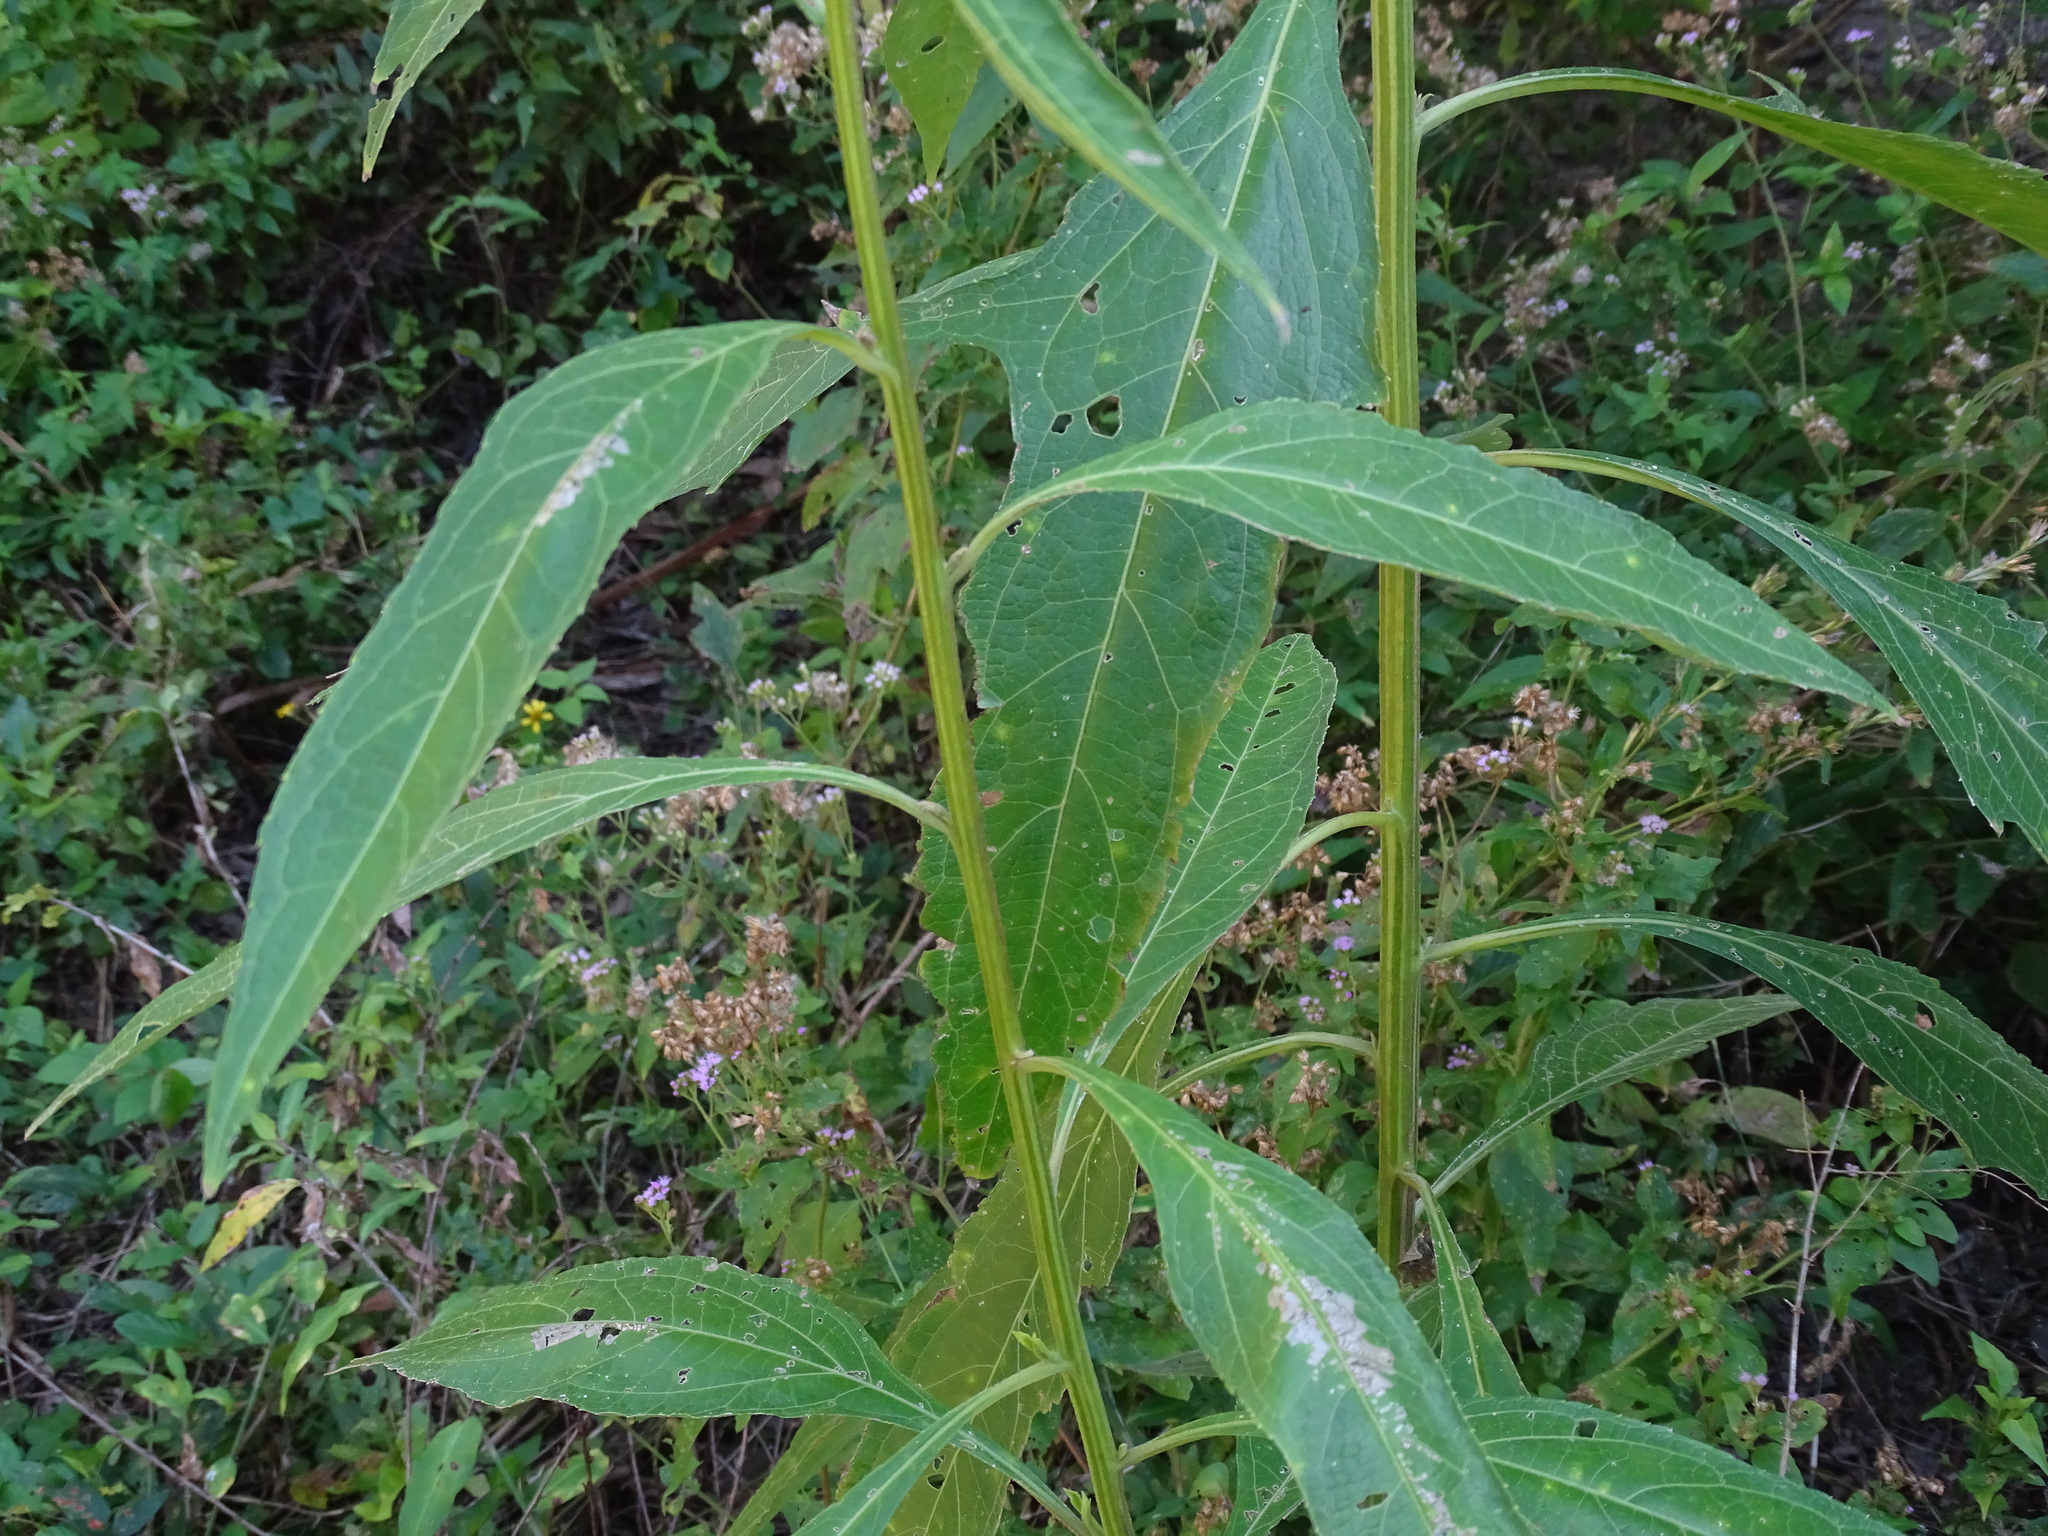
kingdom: Plantae
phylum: Tracheophyta
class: Magnoliopsida
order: Asterales
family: Asteraceae
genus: Neurolaena
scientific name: Neurolaena lobata
